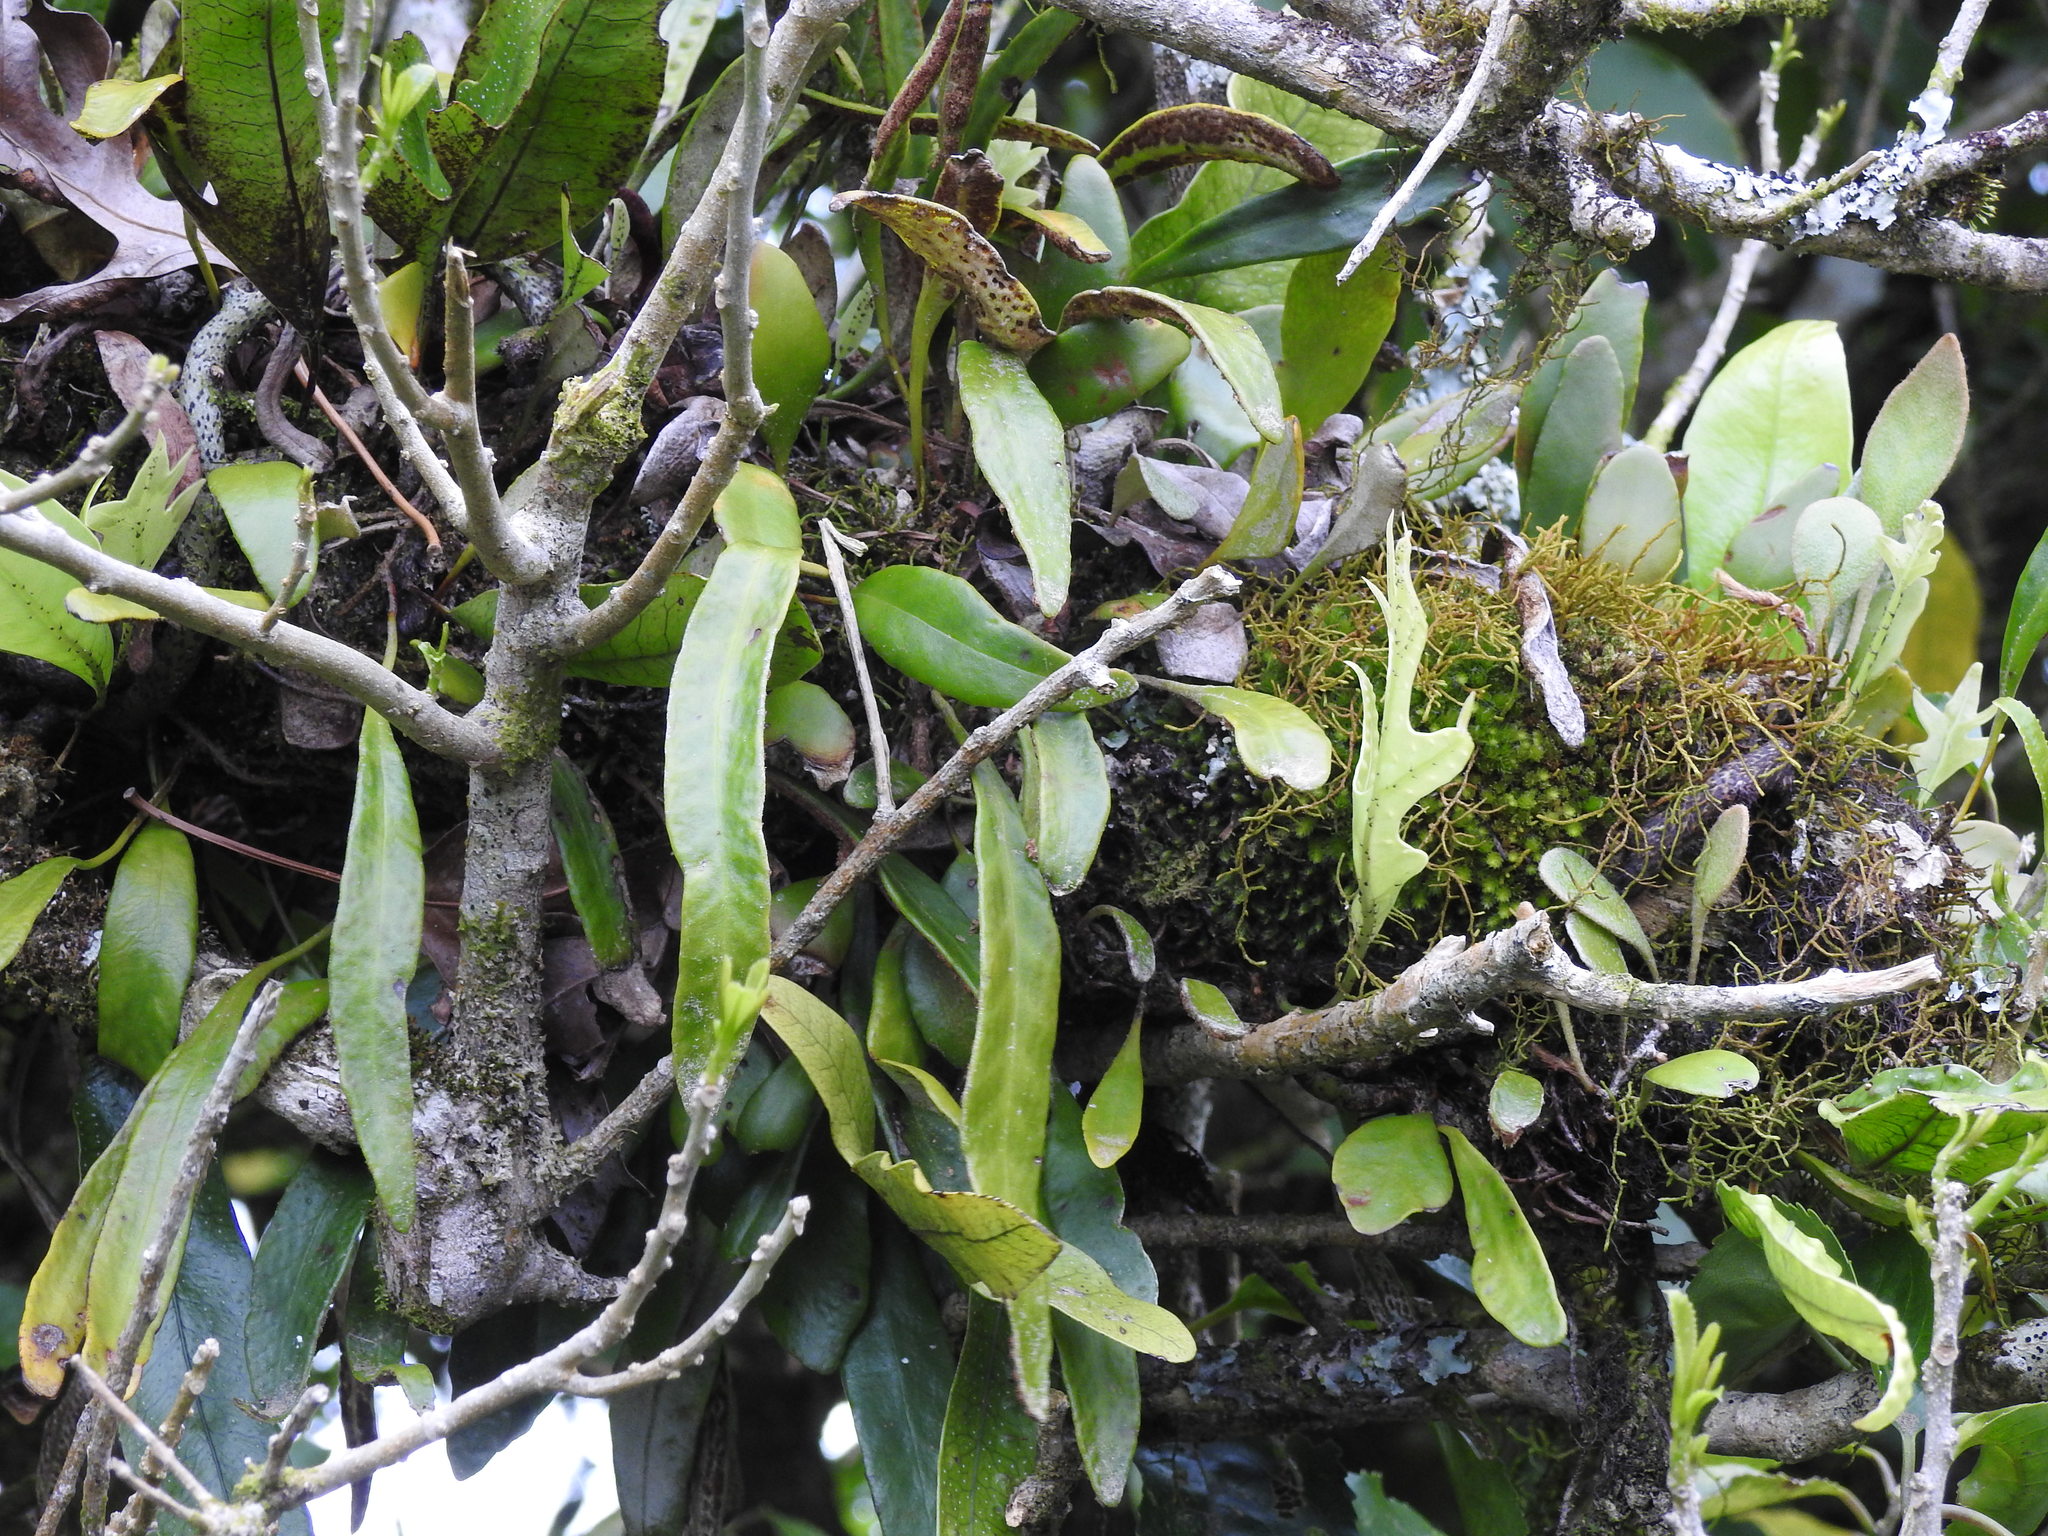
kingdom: Plantae
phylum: Tracheophyta
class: Polypodiopsida
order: Polypodiales
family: Polypodiaceae
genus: Pyrrosia
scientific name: Pyrrosia eleagnifolia
